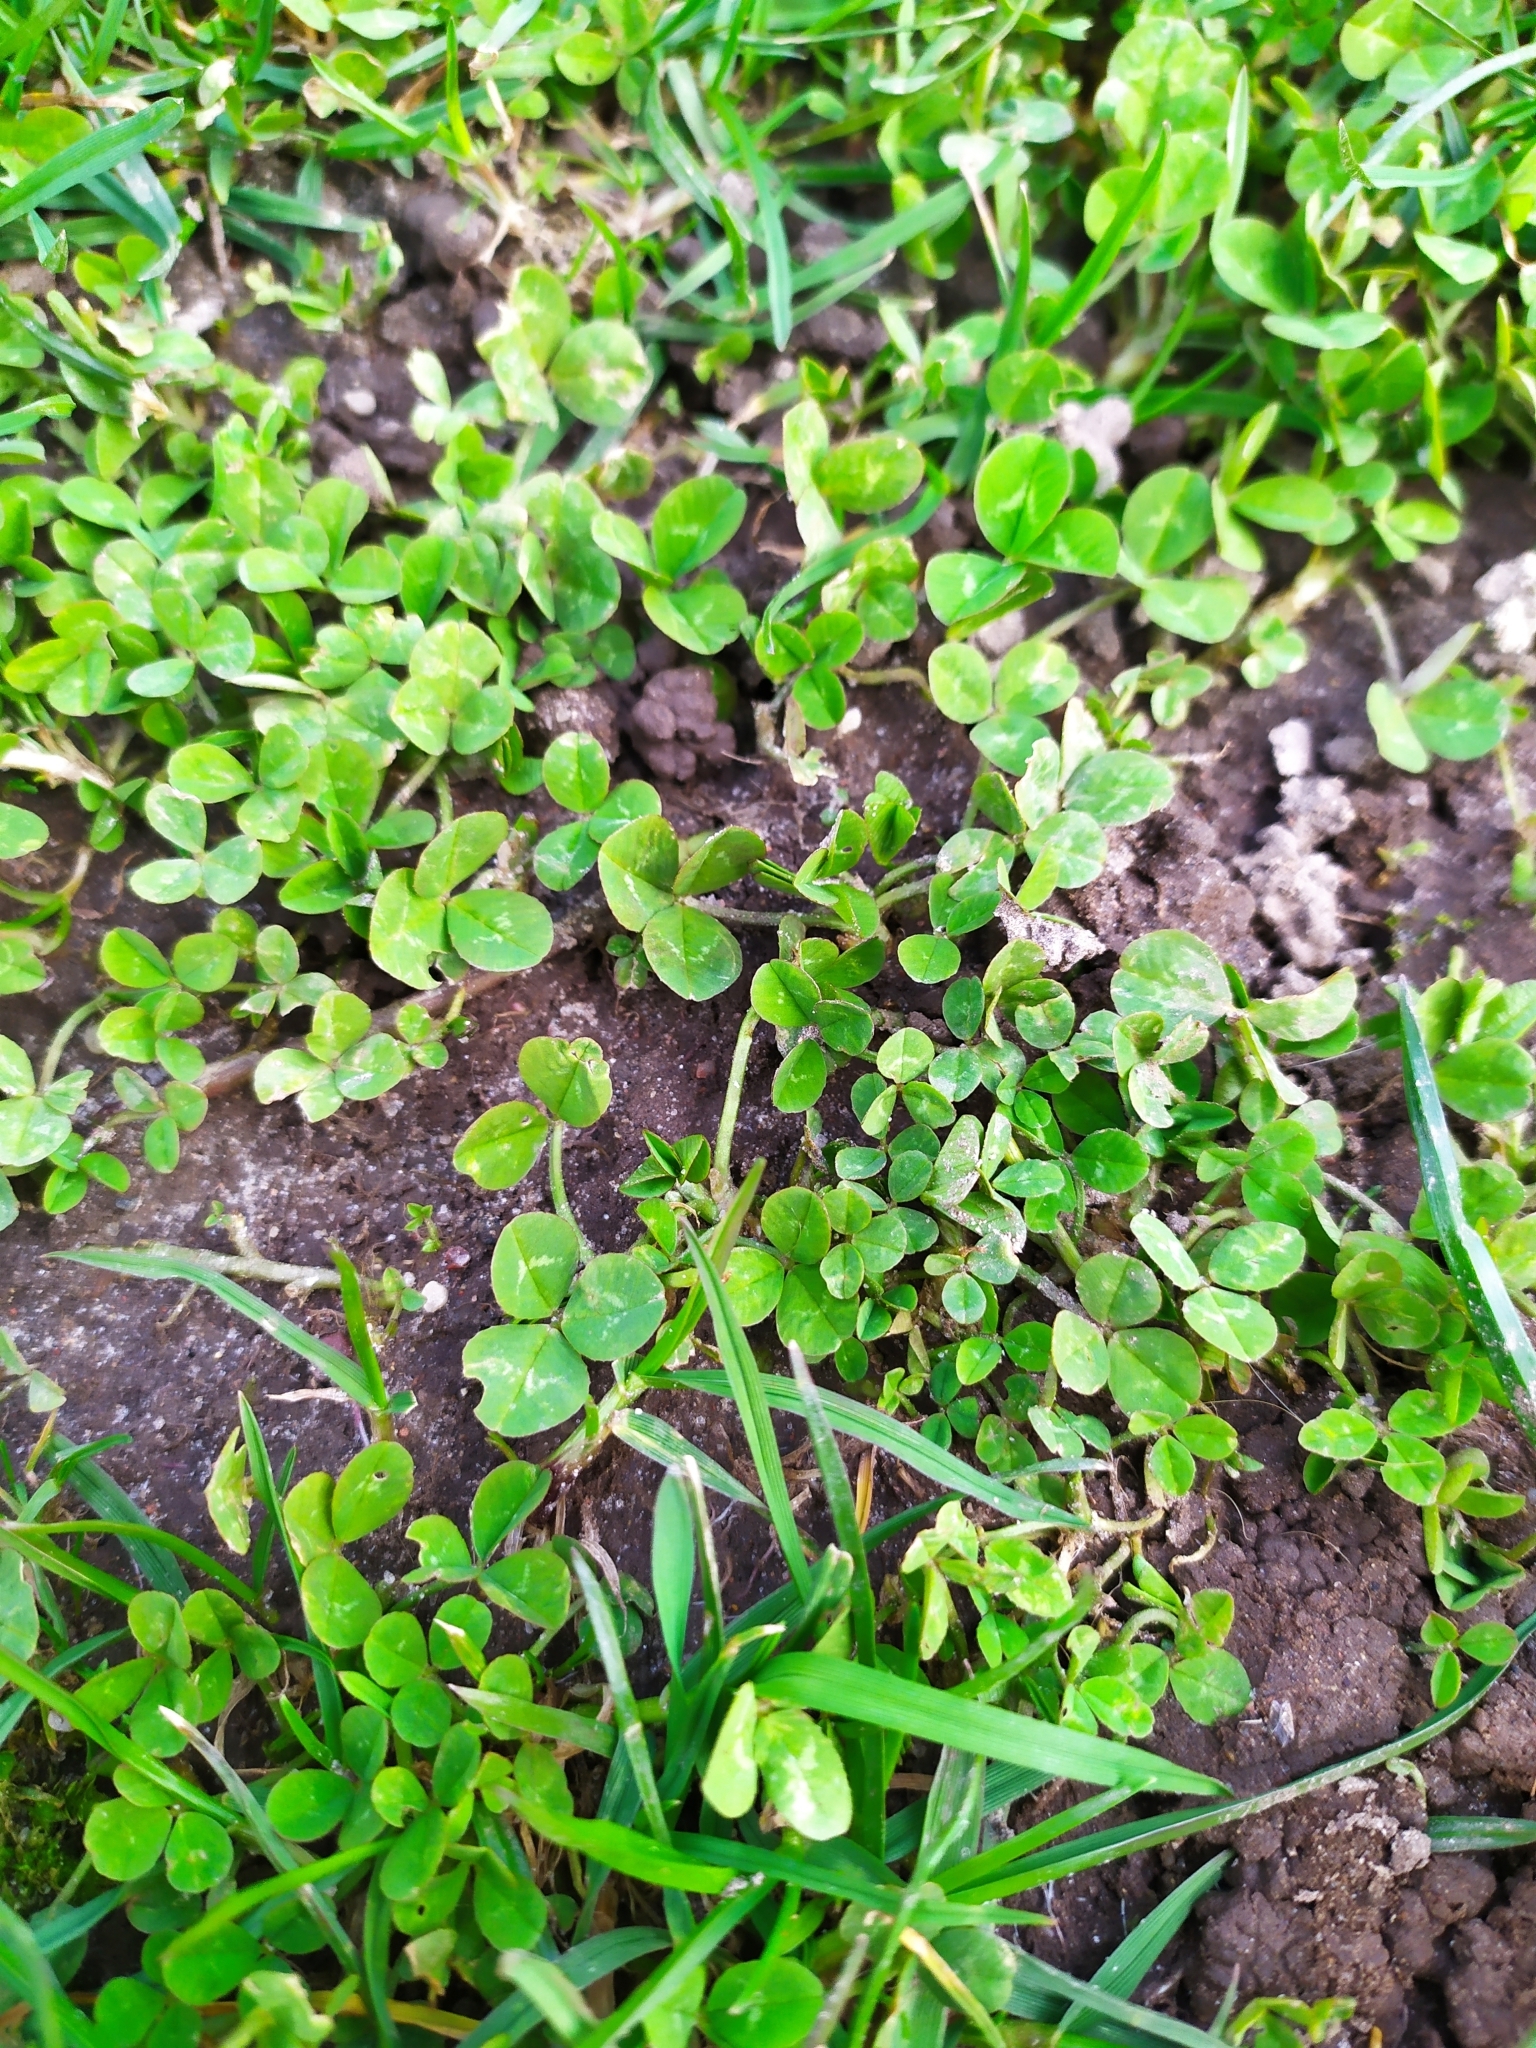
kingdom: Plantae
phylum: Tracheophyta
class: Magnoliopsida
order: Fabales
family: Fabaceae
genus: Trifolium
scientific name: Trifolium repens
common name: White clover
